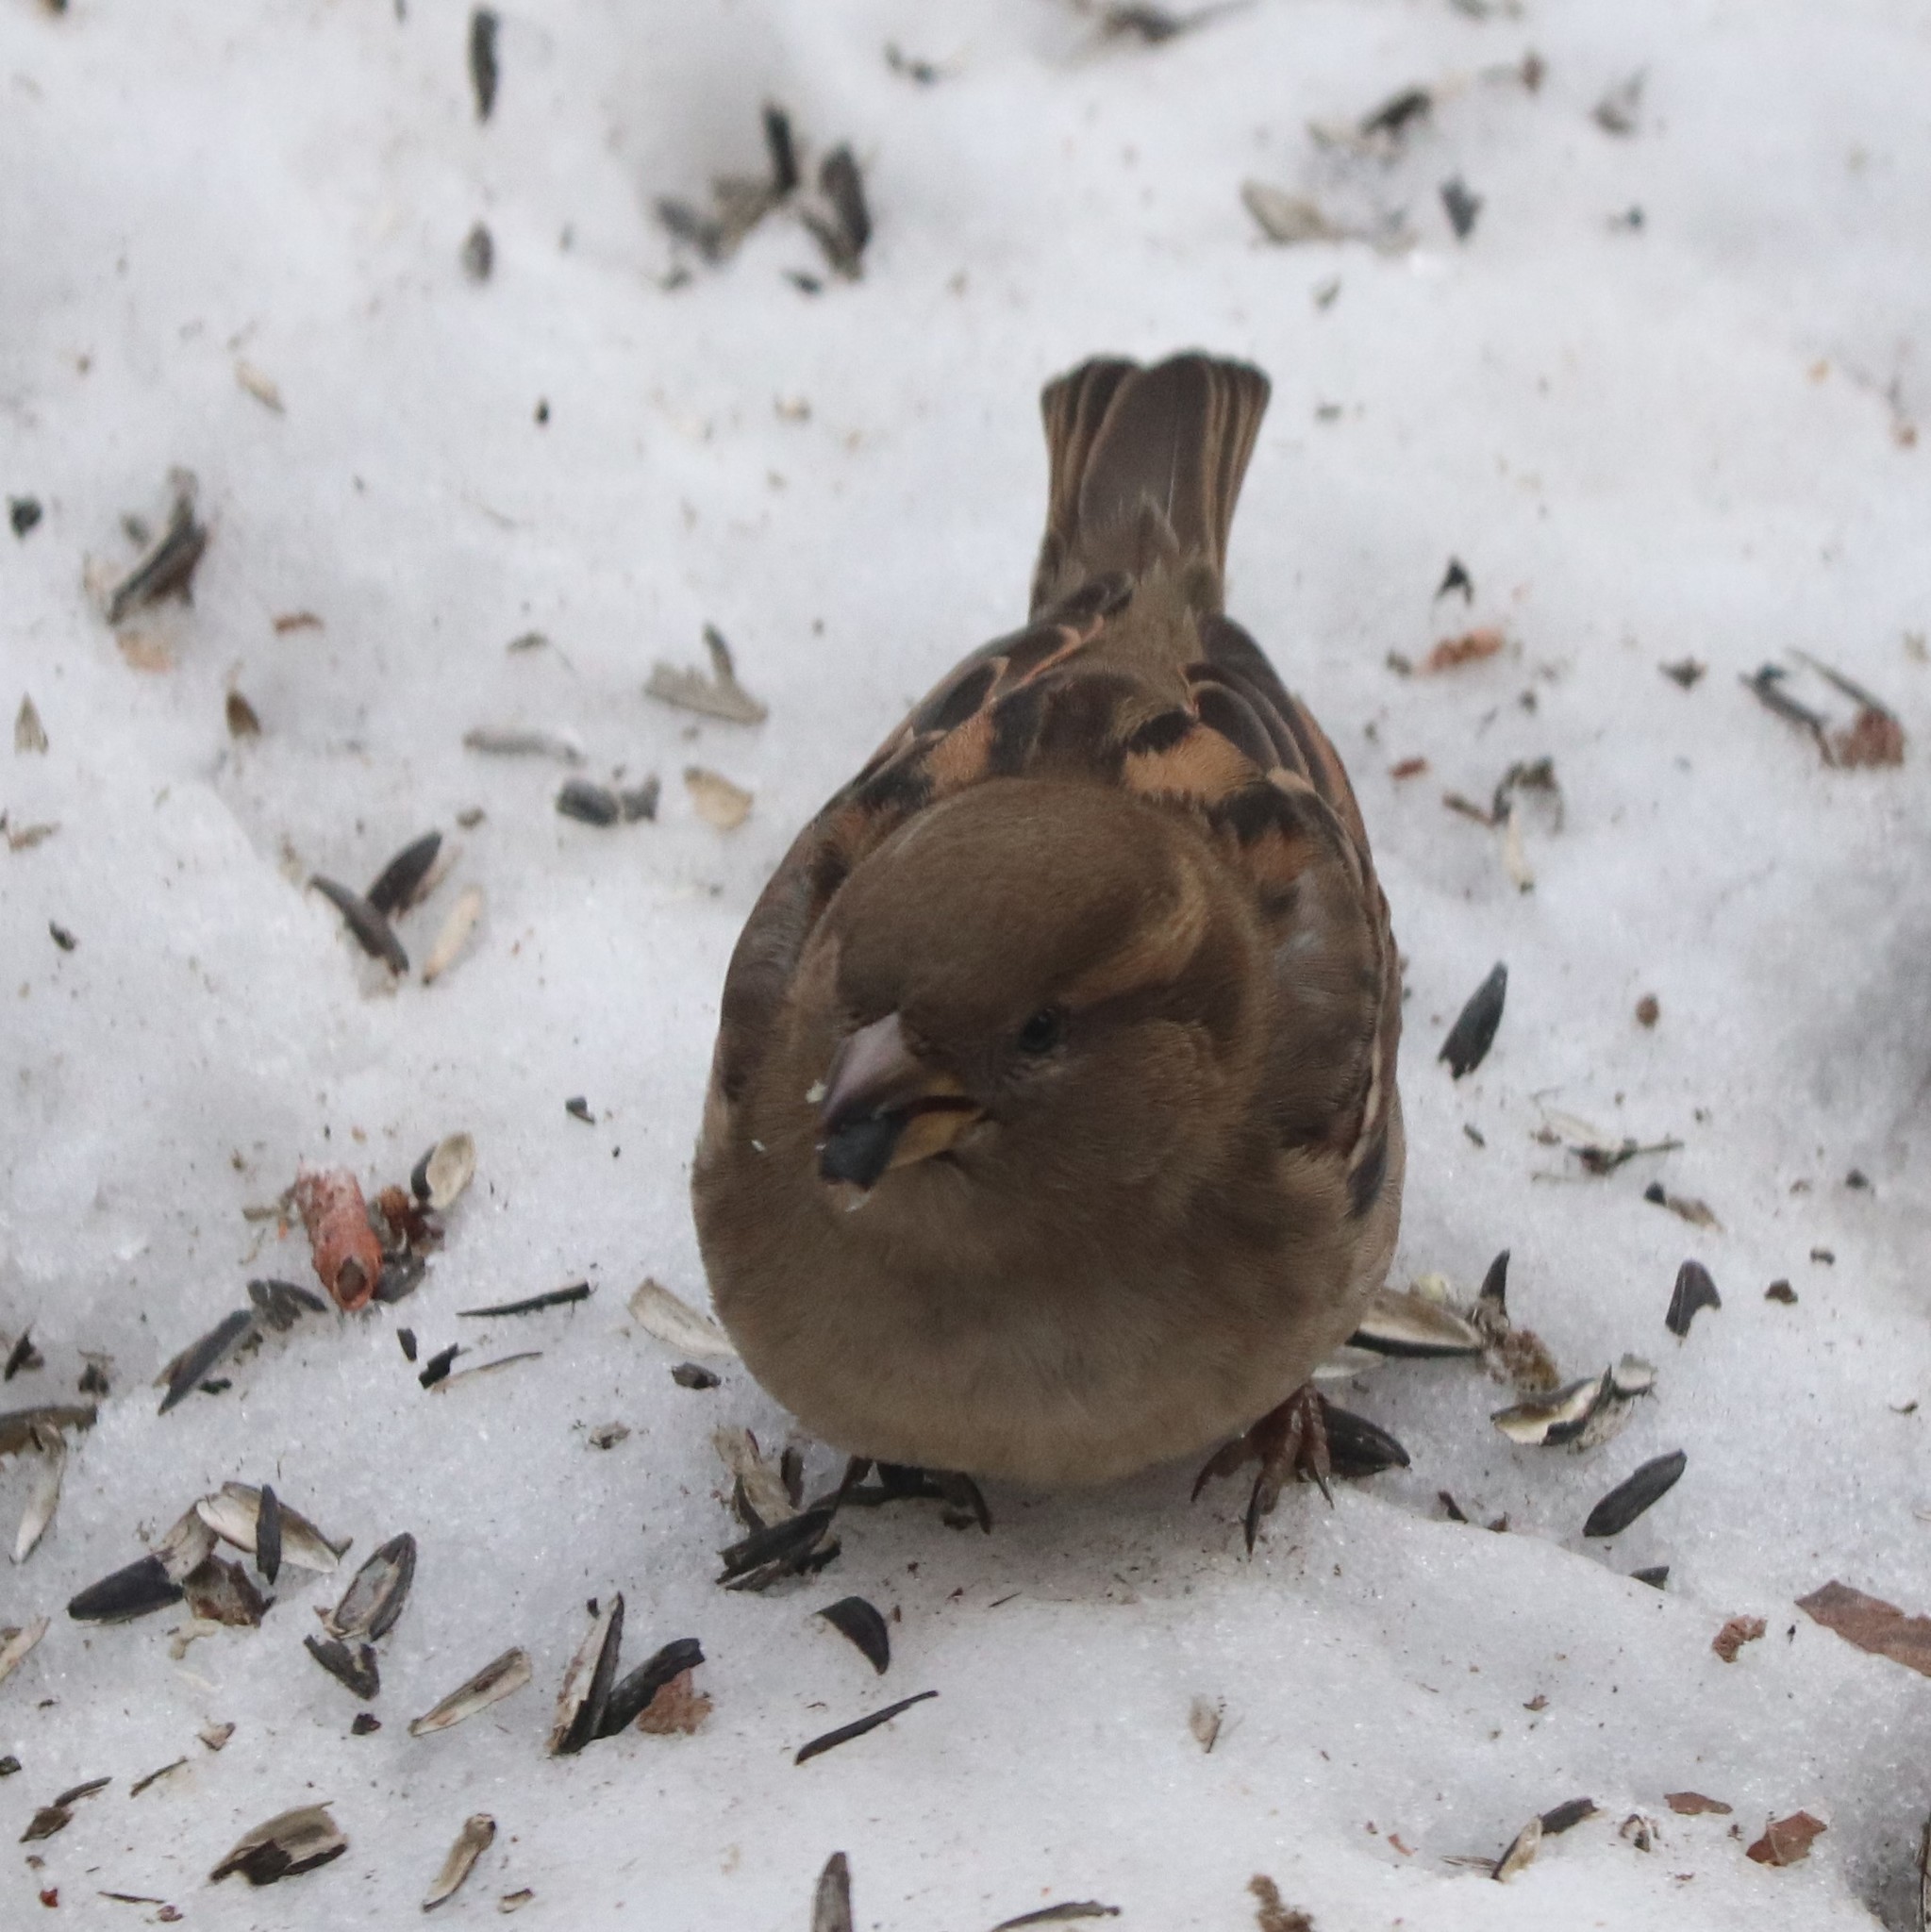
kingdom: Animalia
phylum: Chordata
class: Aves
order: Passeriformes
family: Passeridae
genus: Passer
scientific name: Passer domesticus
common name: House sparrow
